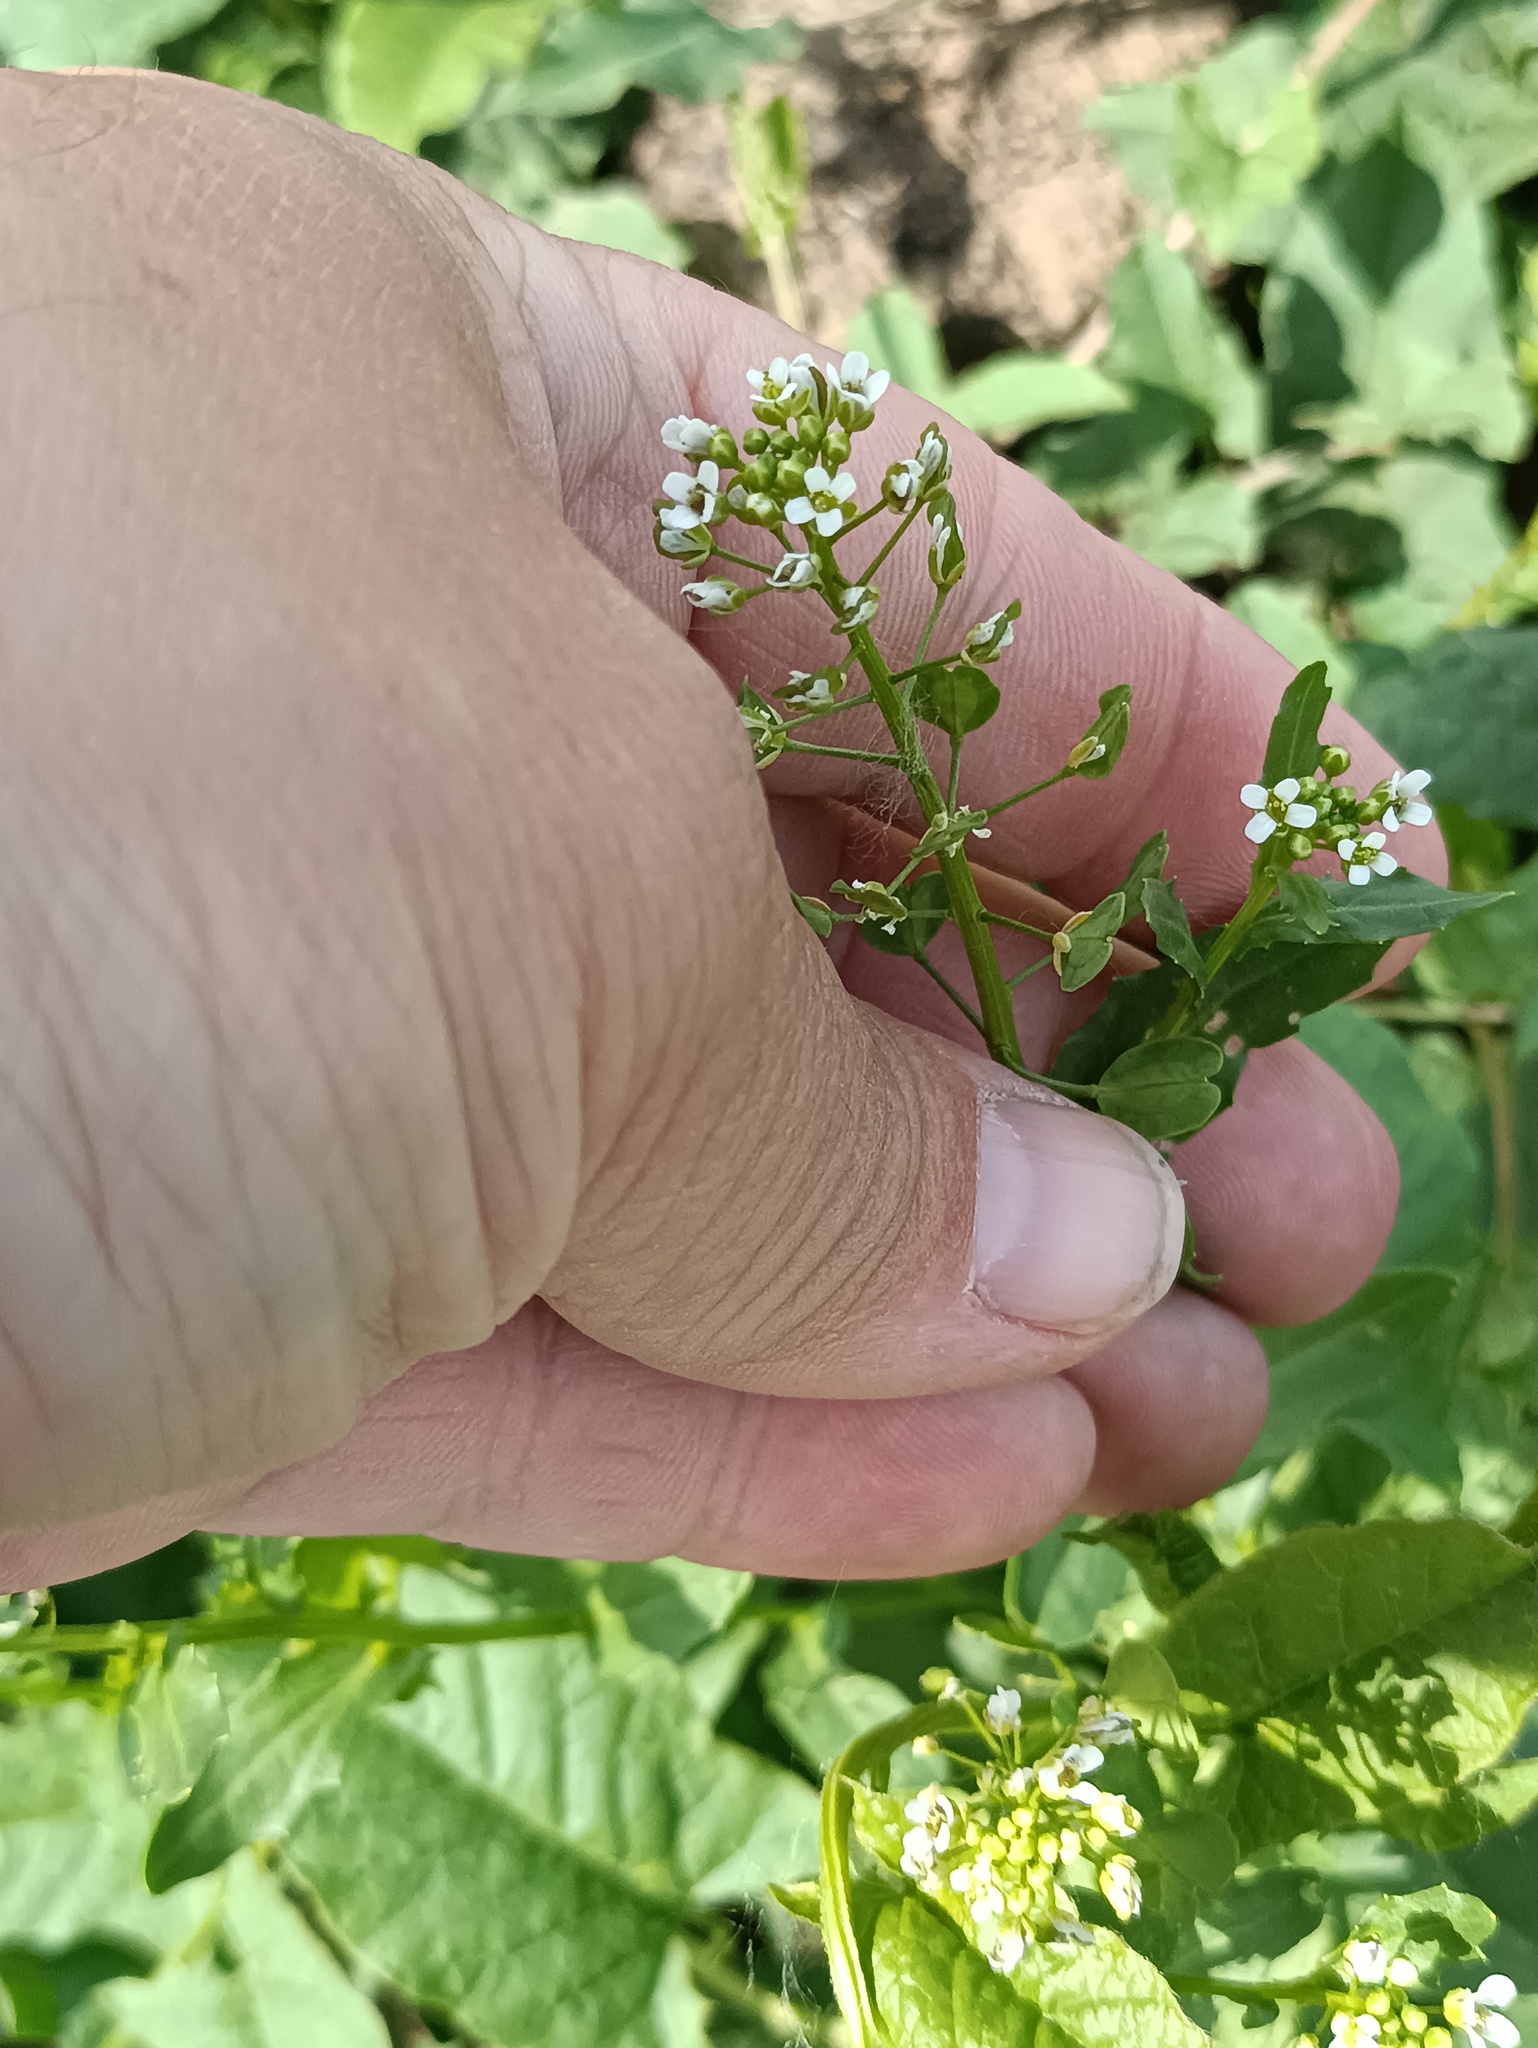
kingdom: Plantae
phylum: Tracheophyta
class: Magnoliopsida
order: Brassicales
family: Brassicaceae
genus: Thlaspi
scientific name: Thlaspi arvense
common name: Field pennycress
